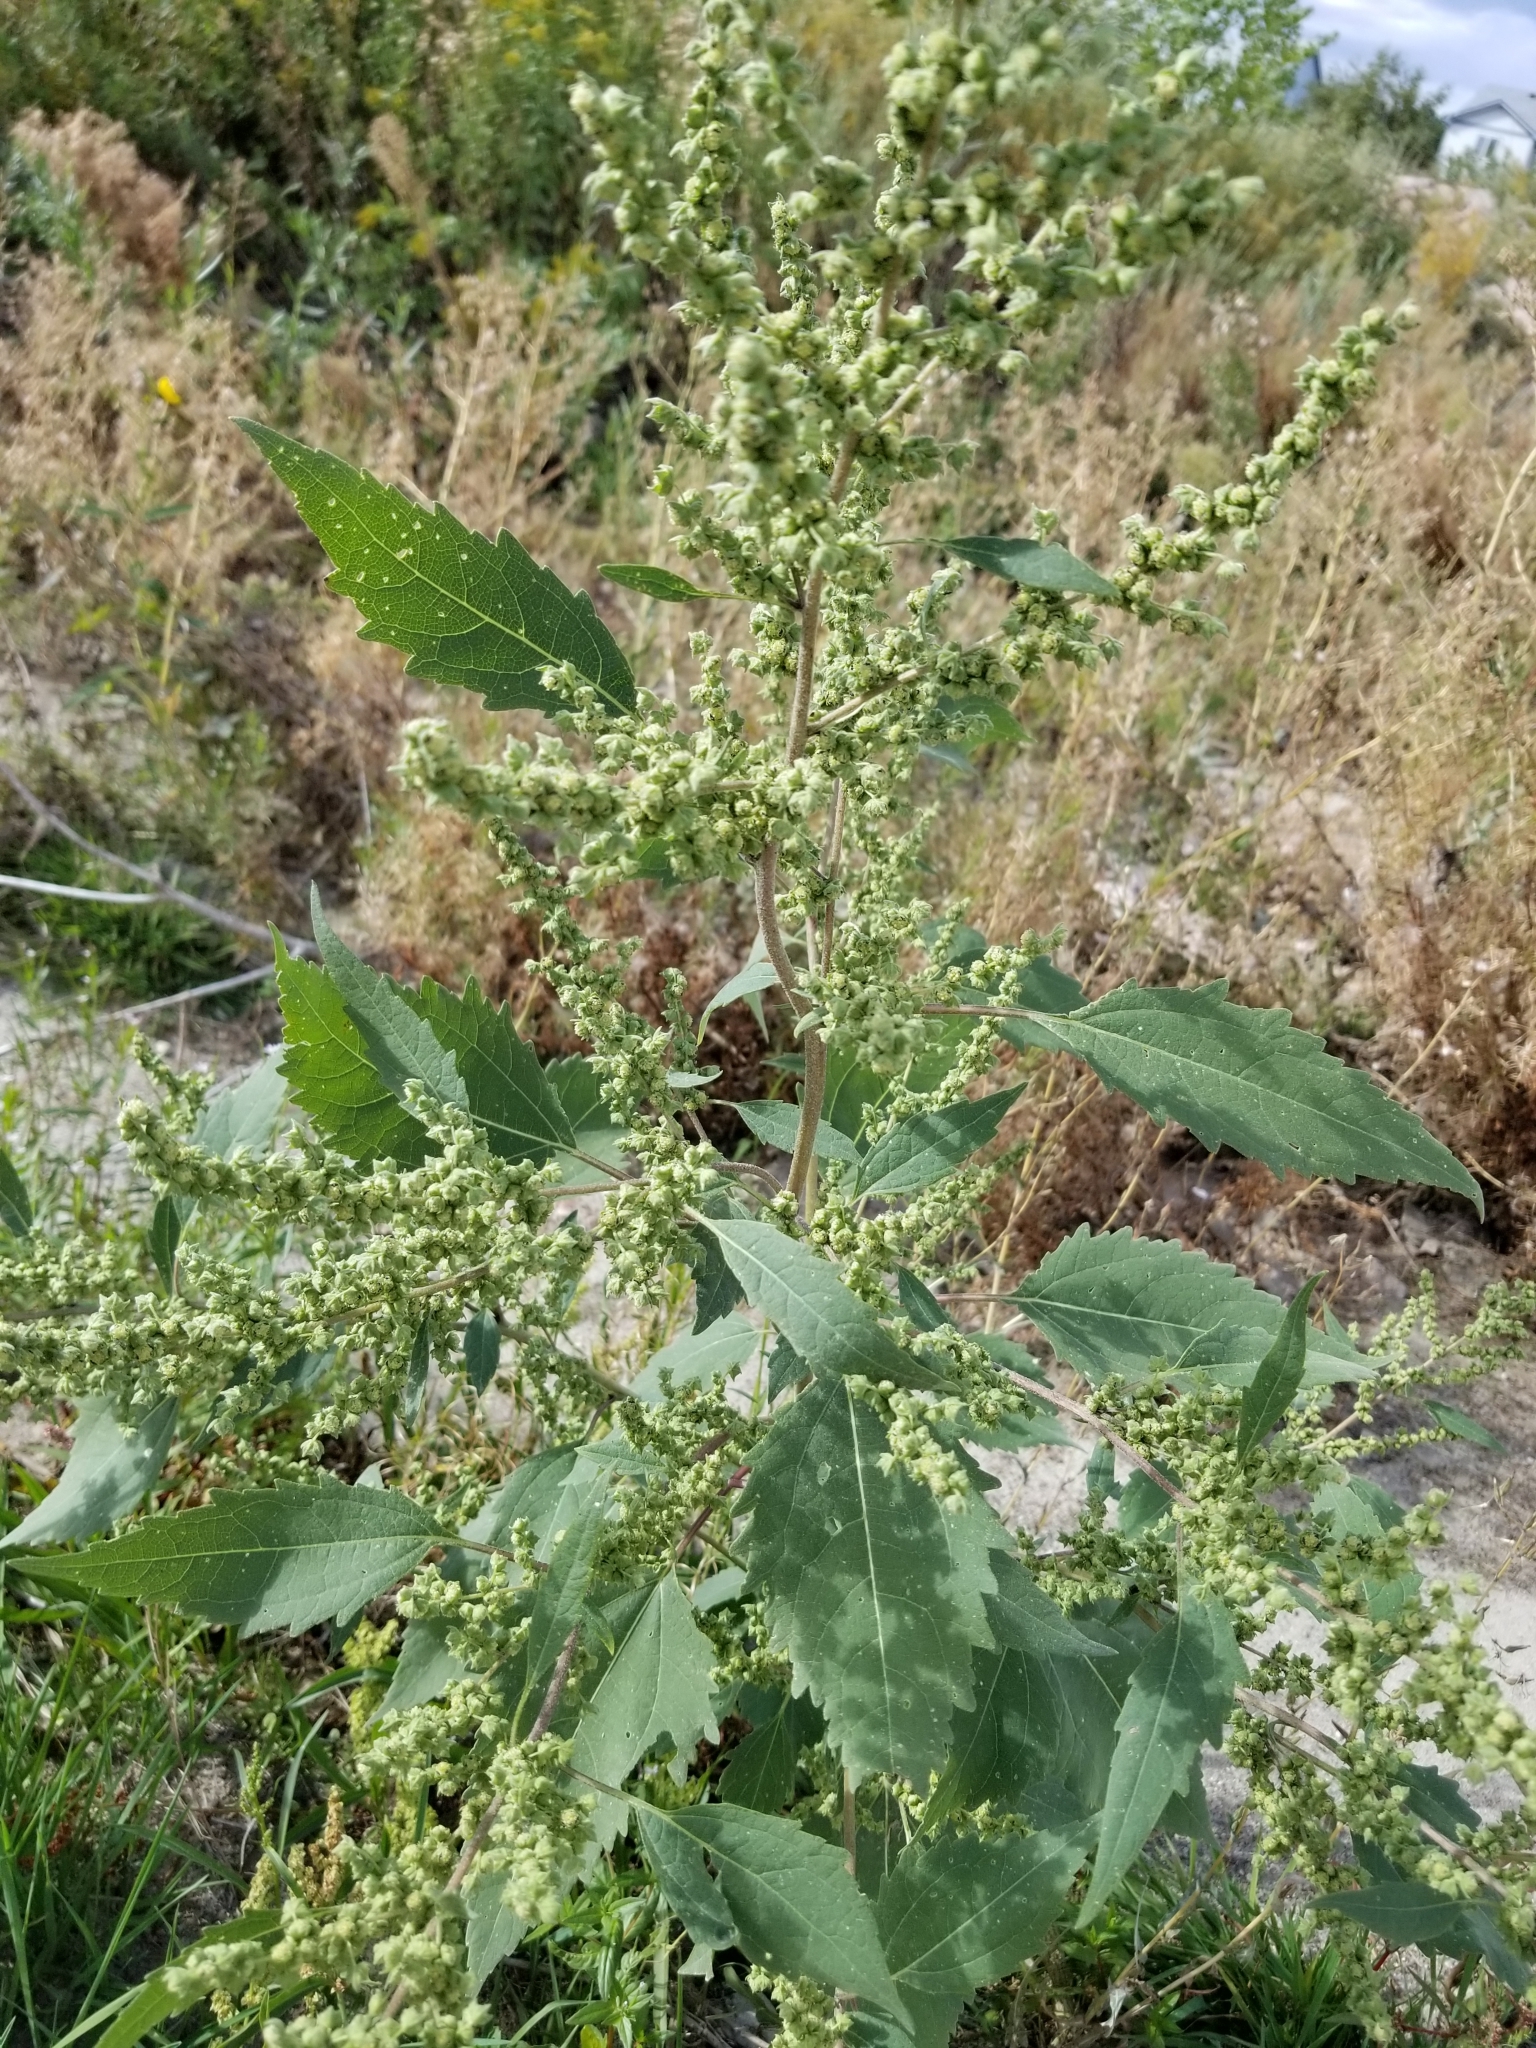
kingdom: Plantae
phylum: Tracheophyta
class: Magnoliopsida
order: Caryophyllales
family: Amaranthaceae
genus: Chenopodium
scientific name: Chenopodium album
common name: Fat-hen
